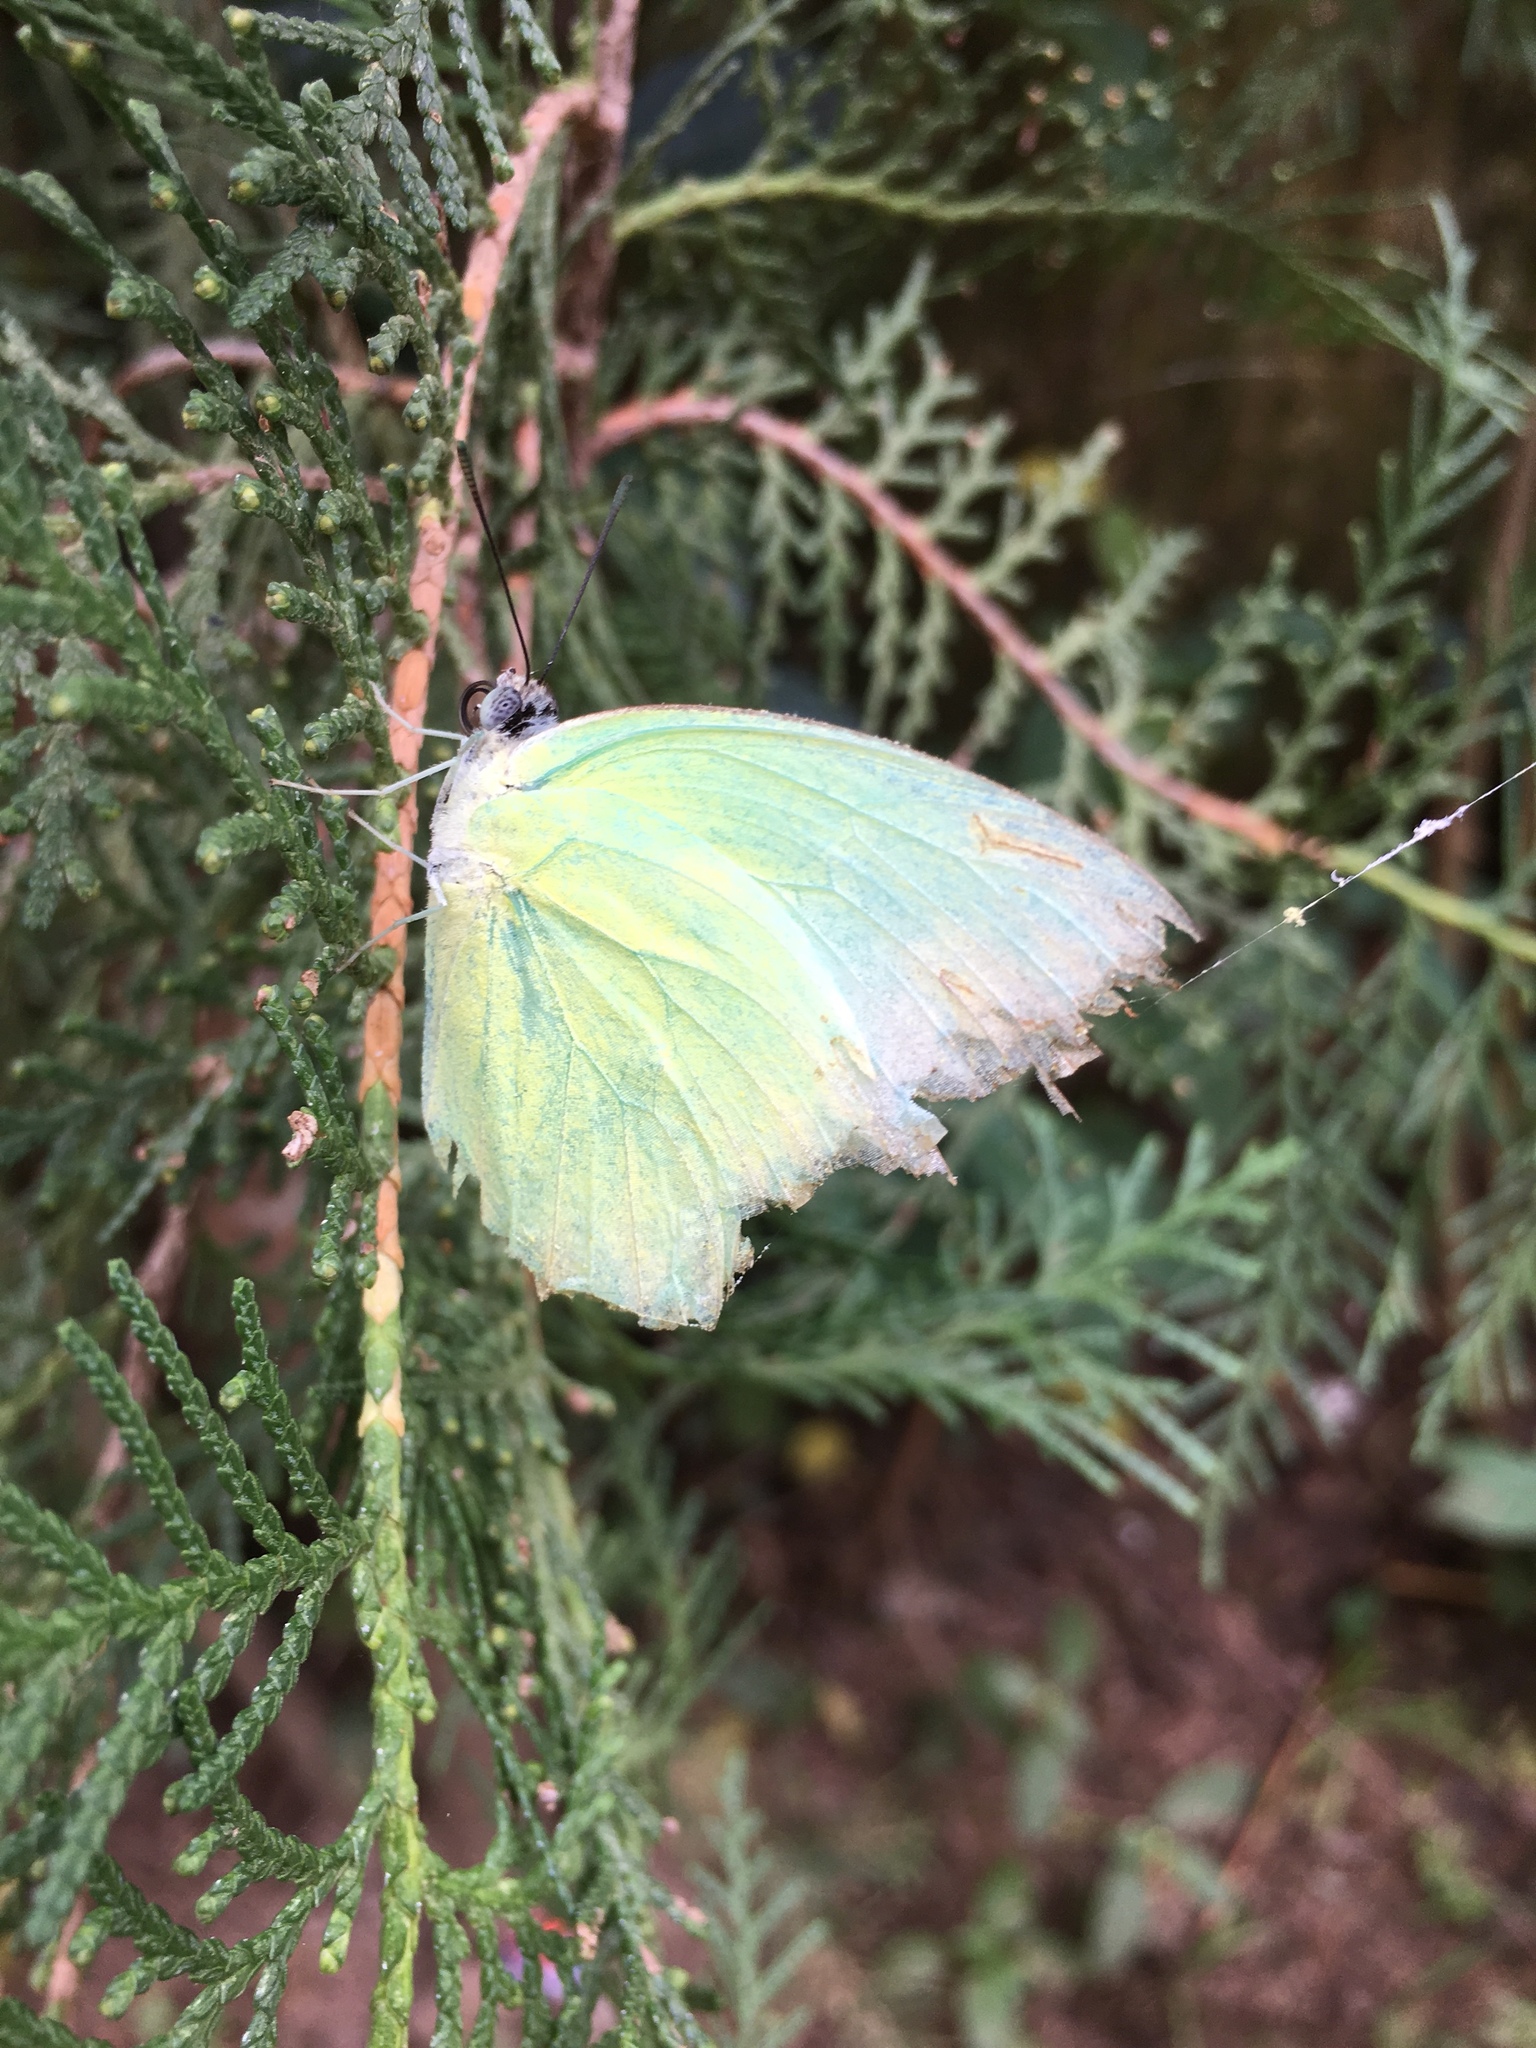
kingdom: Animalia
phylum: Arthropoda
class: Insecta
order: Lepidoptera
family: Pieridae
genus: Catopsilia
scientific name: Catopsilia pomona
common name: Common emigrant
